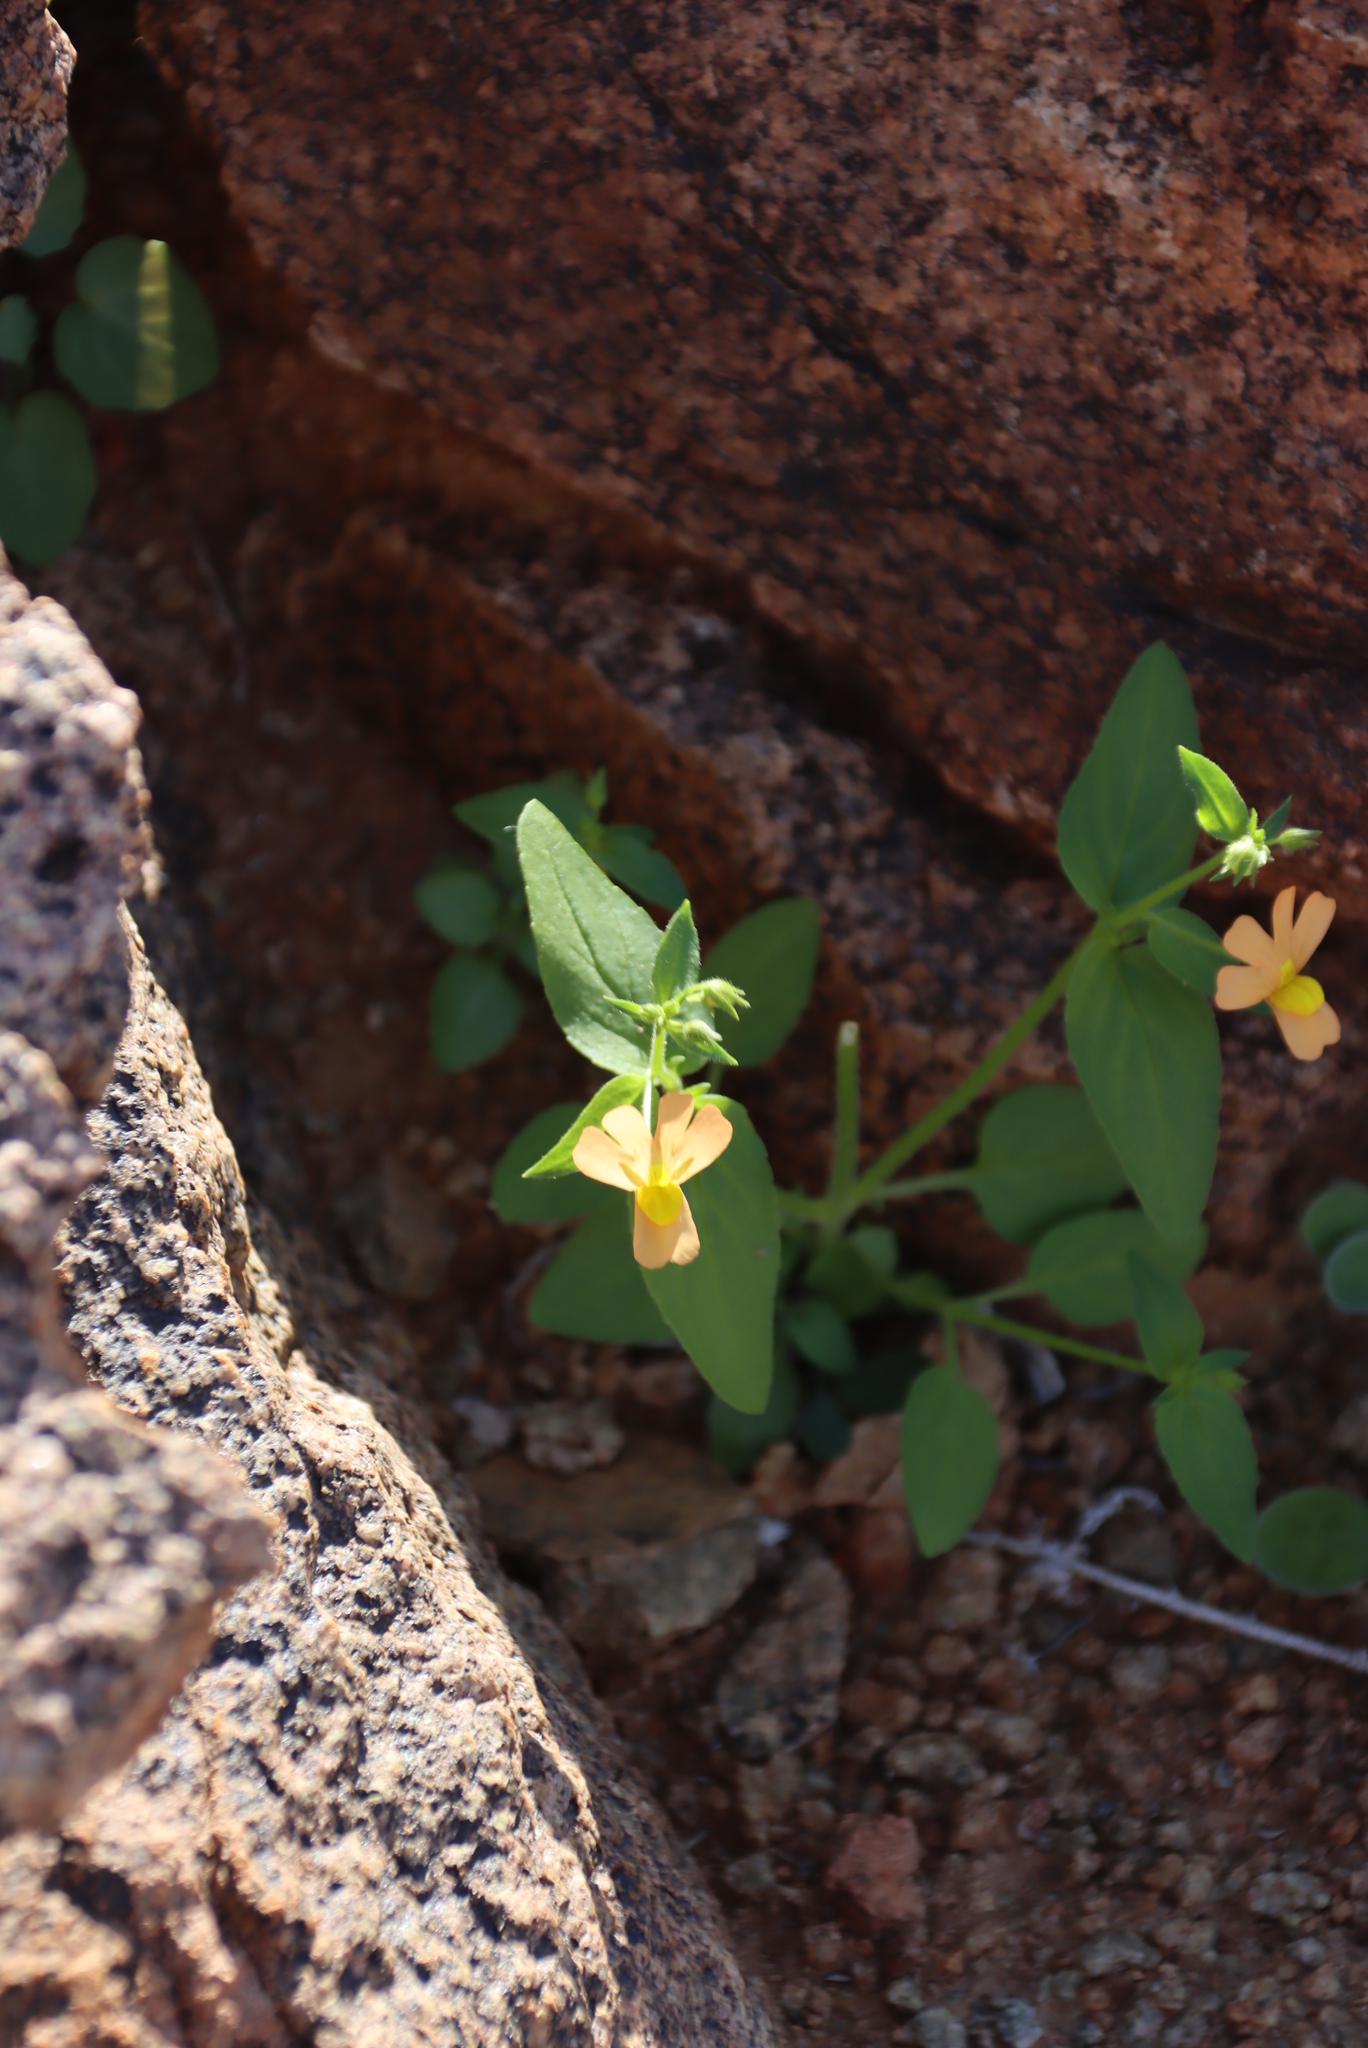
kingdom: Plantae
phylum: Tracheophyta
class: Magnoliopsida
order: Lamiales
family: Scrophulariaceae
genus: Nemesia
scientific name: Nemesia williamsonii
